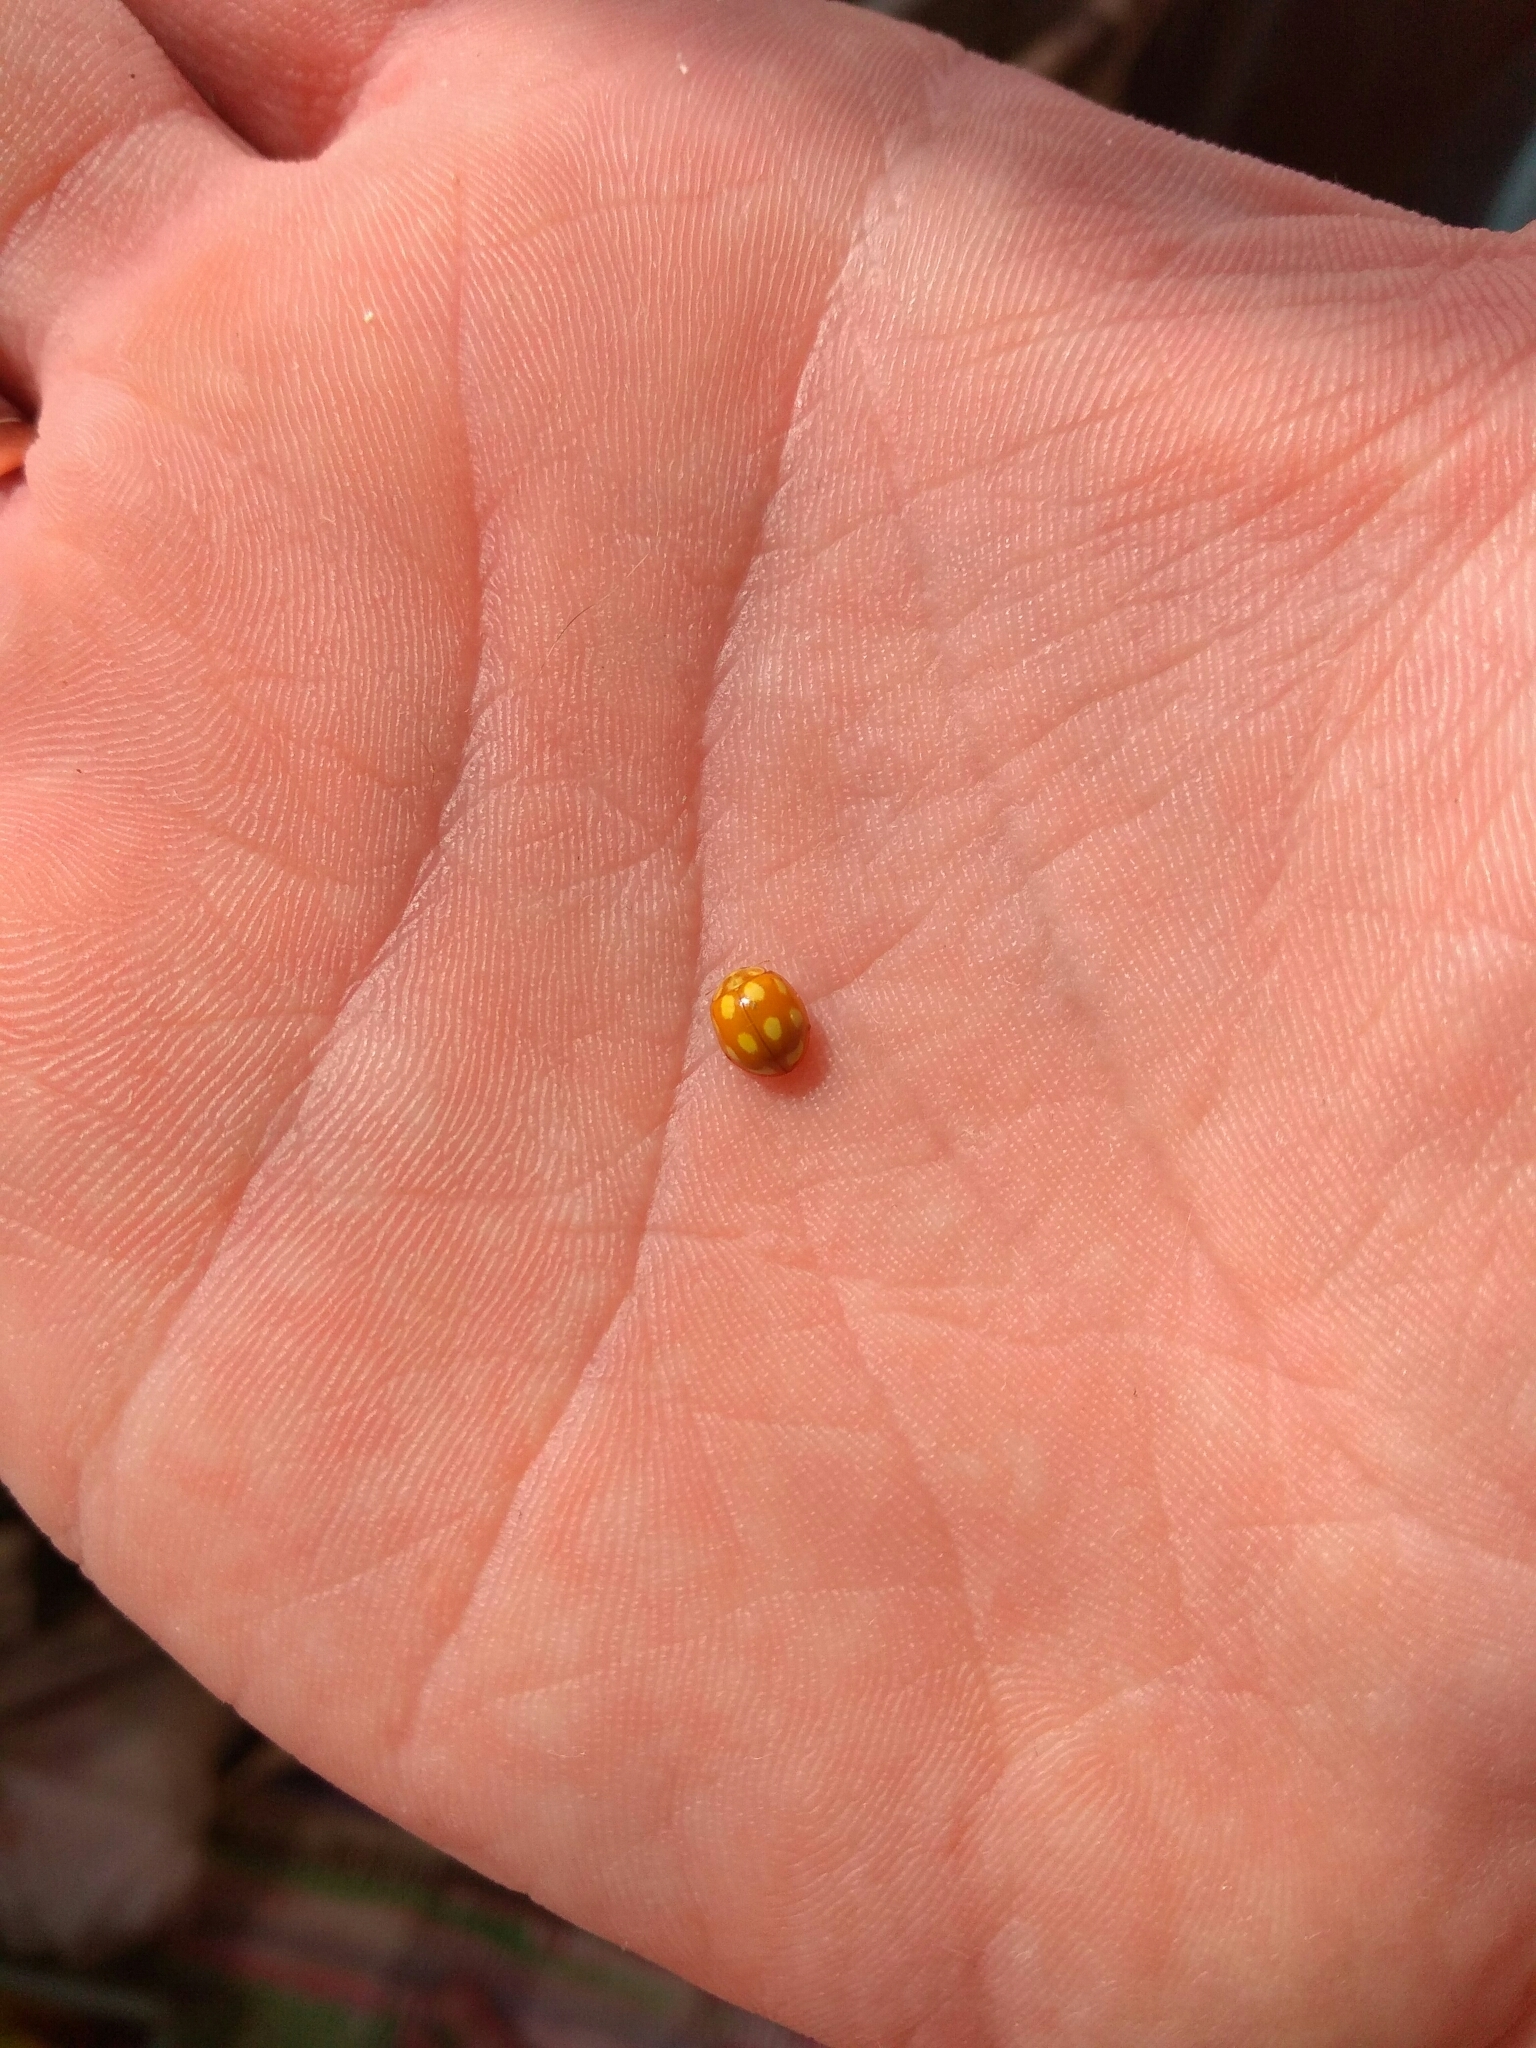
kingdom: Animalia
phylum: Arthropoda
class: Insecta
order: Coleoptera
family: Coccinellidae
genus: Calvia
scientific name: Calvia decemguttata
